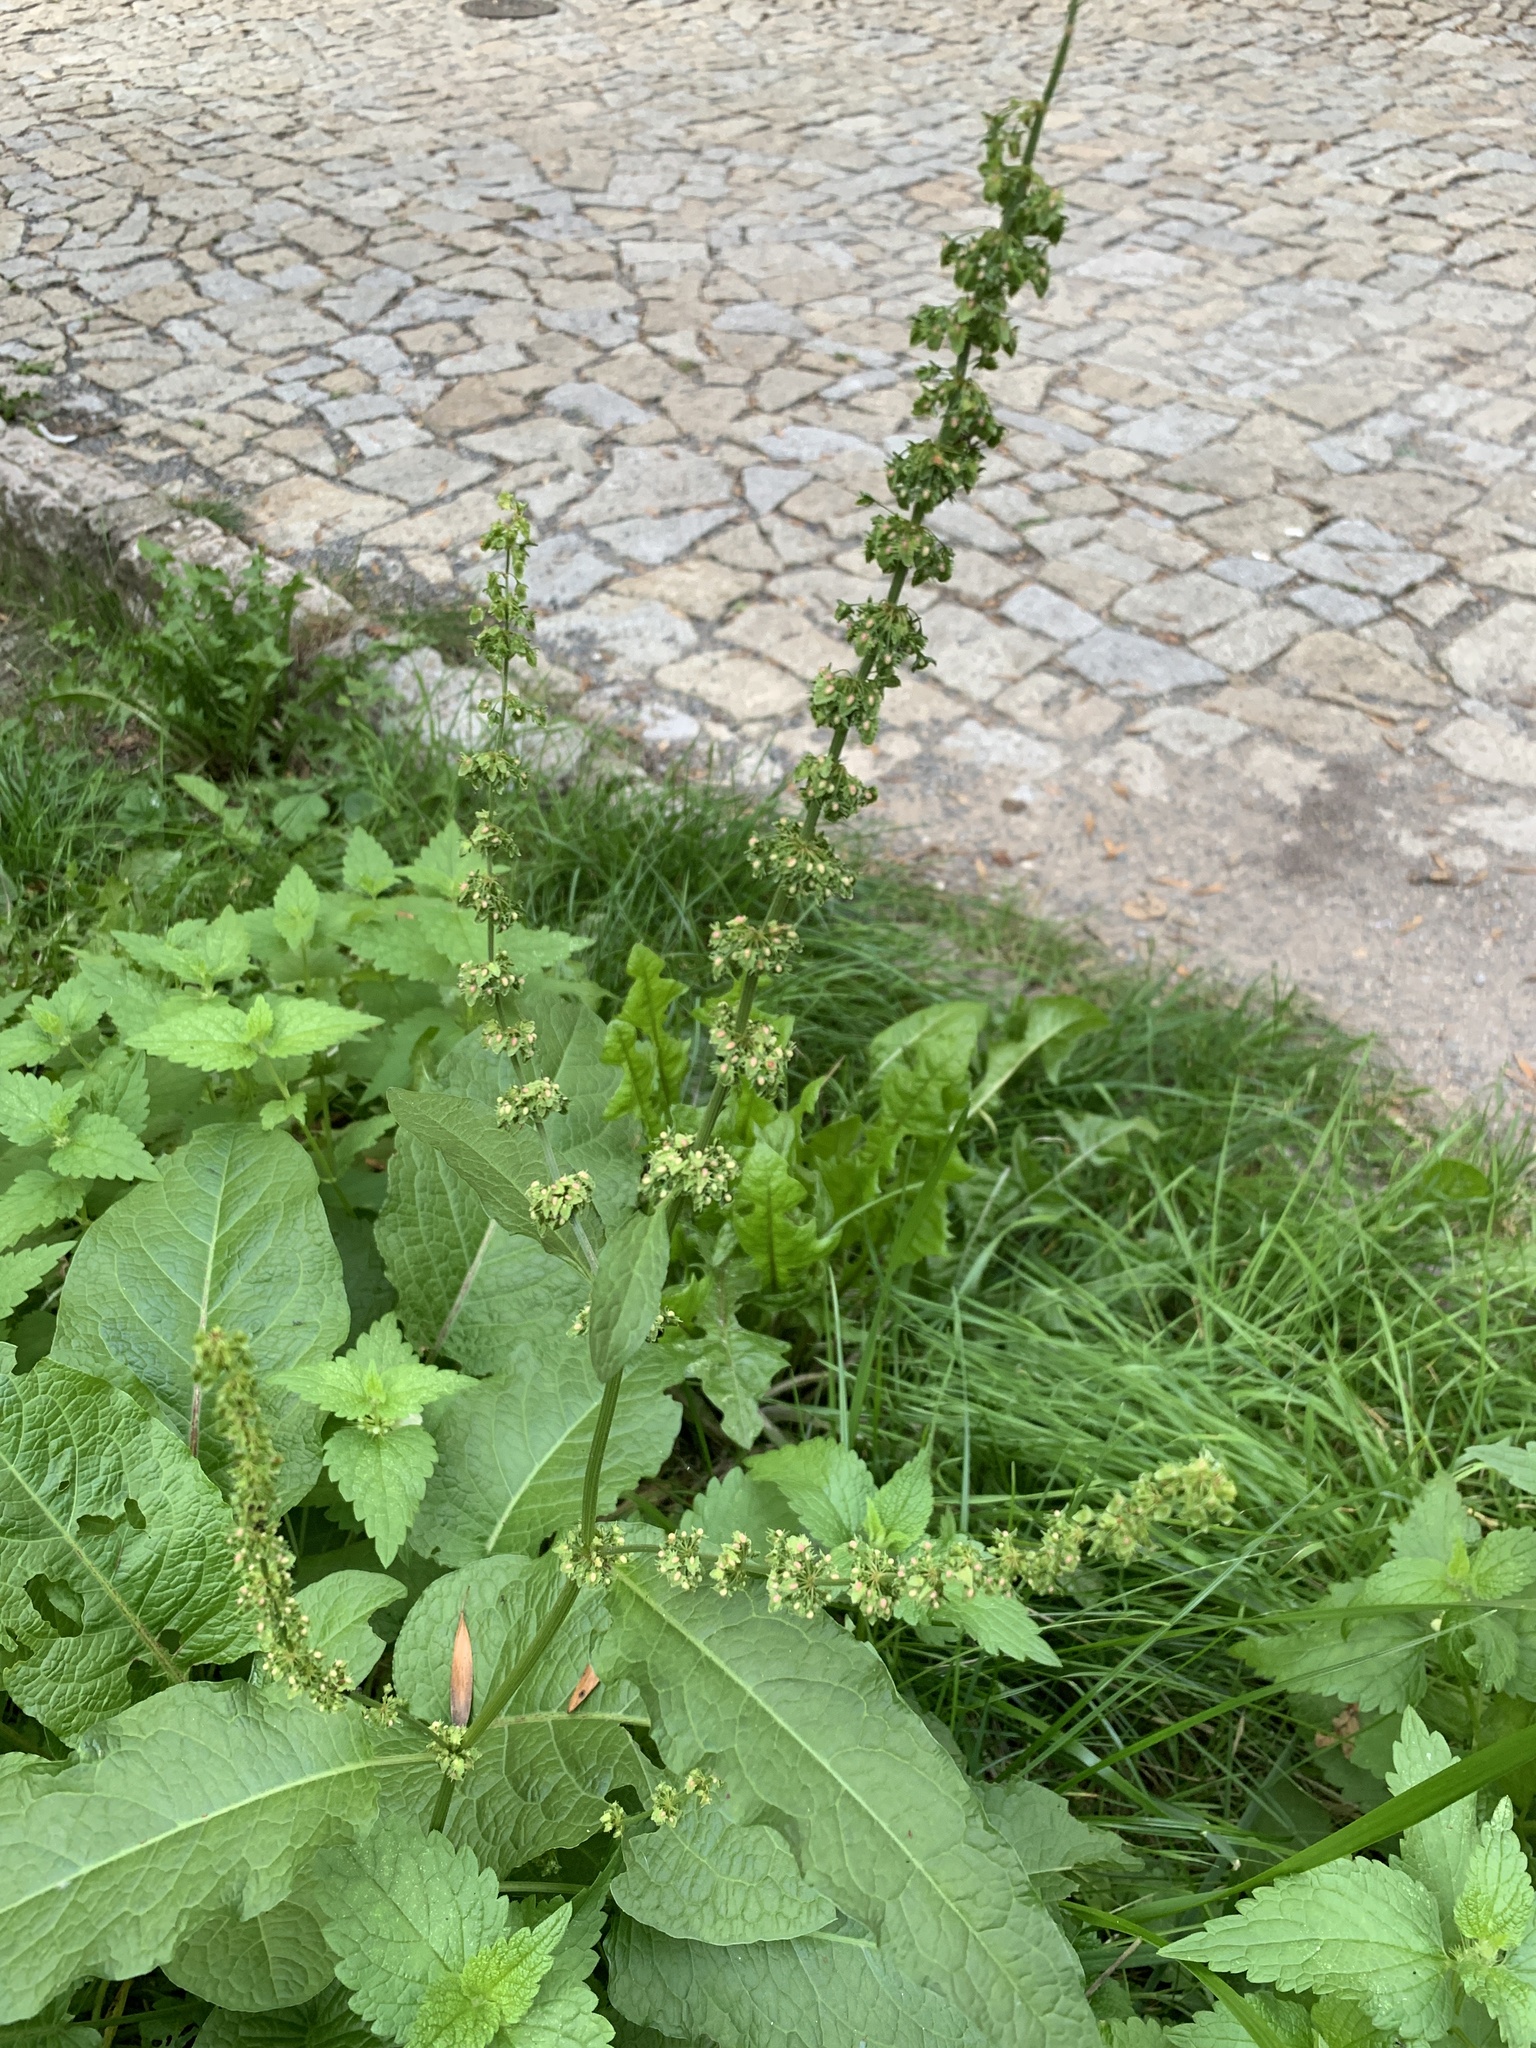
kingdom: Plantae
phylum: Tracheophyta
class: Magnoliopsida
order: Caryophyllales
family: Polygonaceae
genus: Rumex
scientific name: Rumex obtusifolius
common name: Bitter dock
